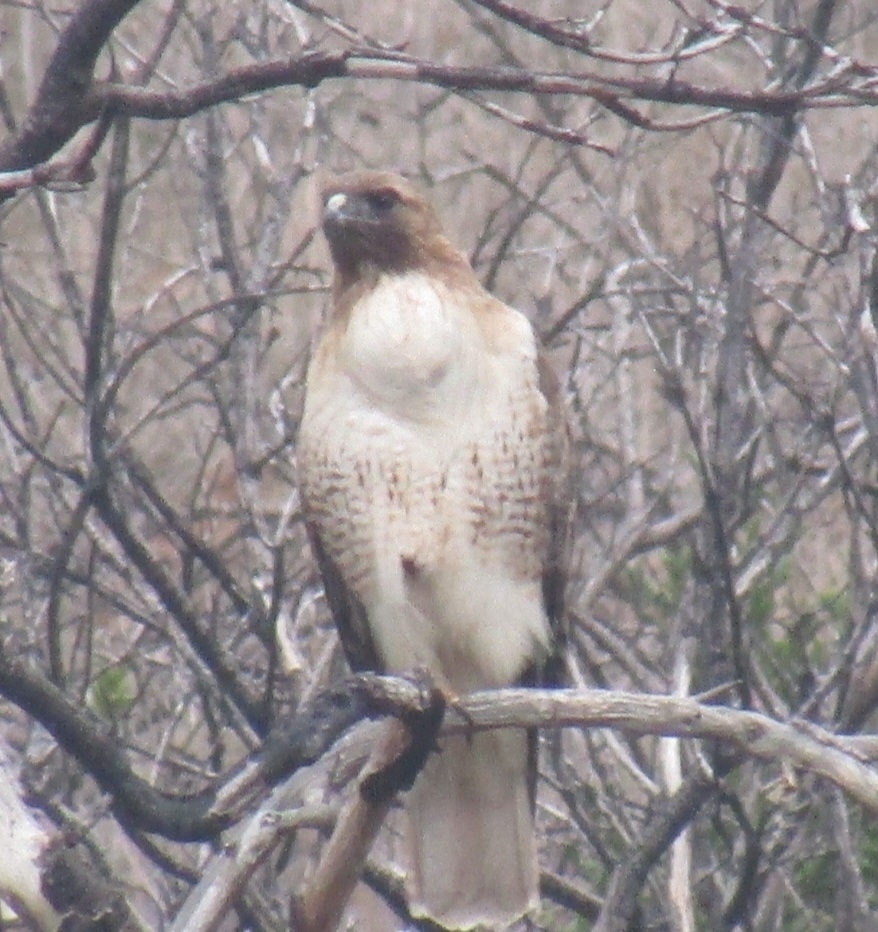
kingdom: Animalia
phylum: Chordata
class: Aves
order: Accipitriformes
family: Accipitridae
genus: Buteo
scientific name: Buteo jamaicensis
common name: Red-tailed hawk
